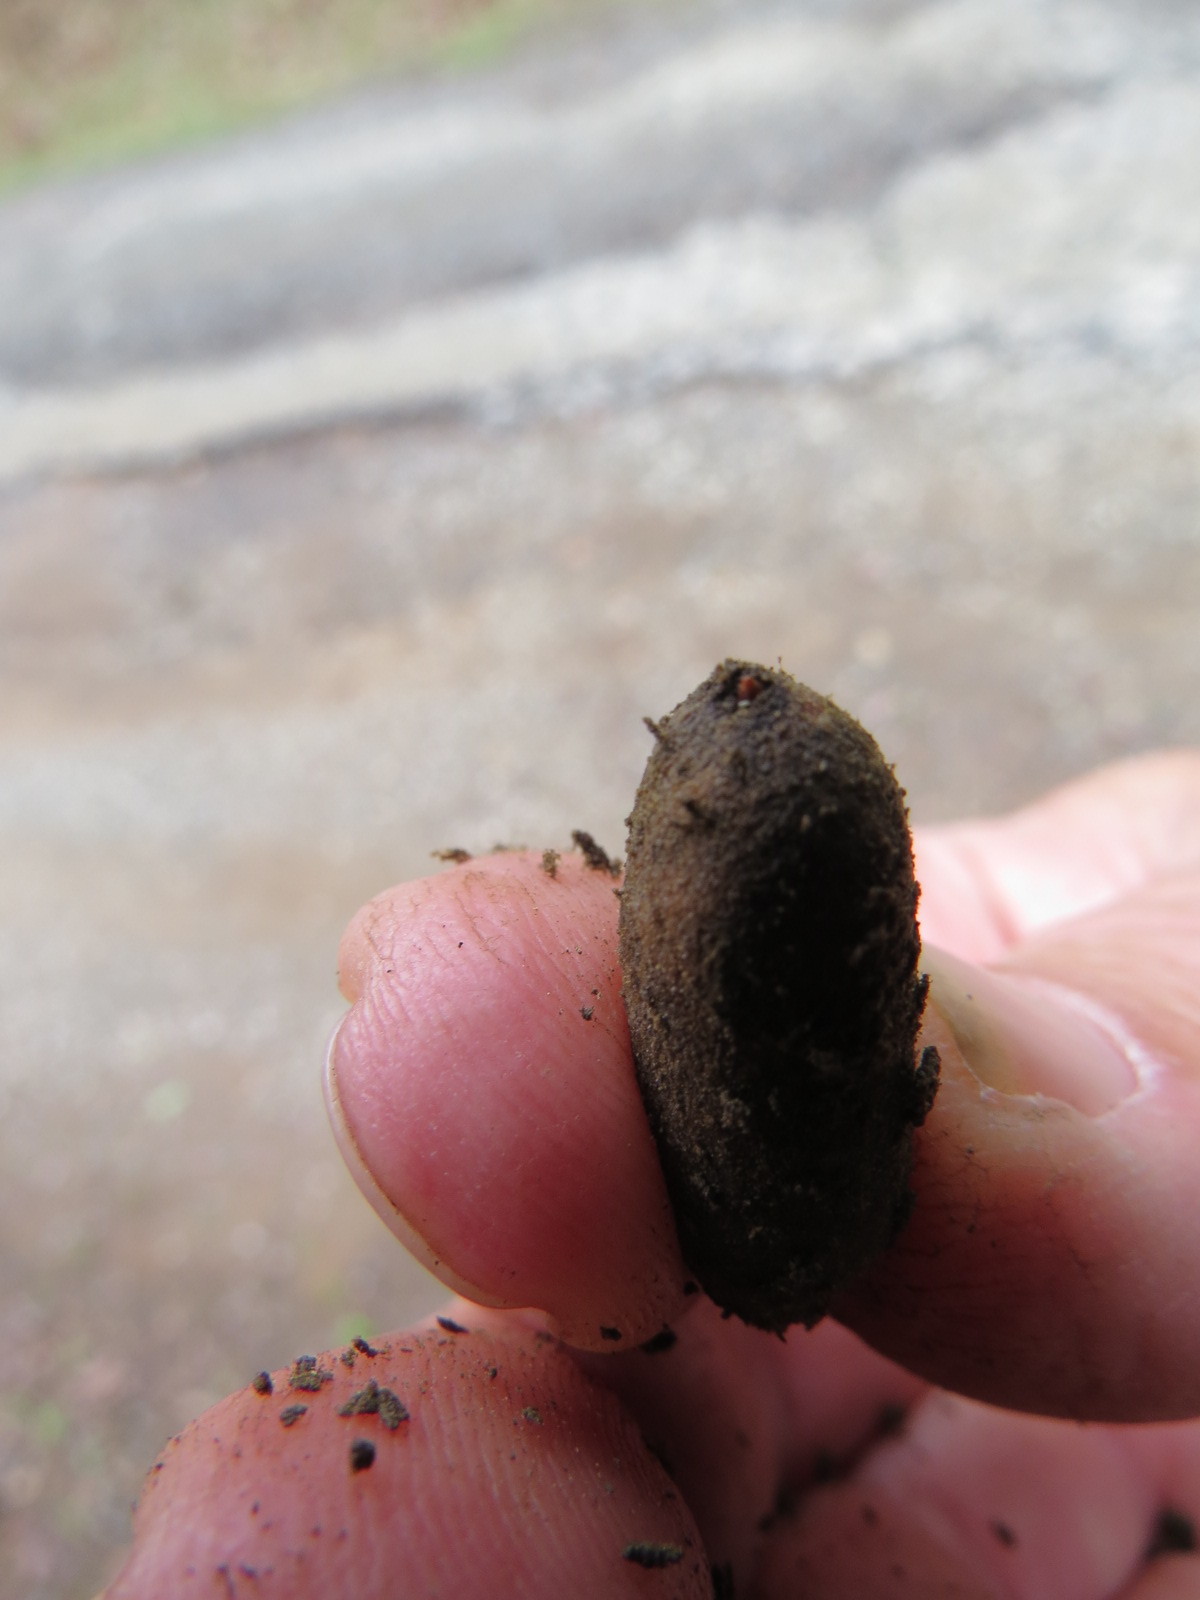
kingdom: Animalia
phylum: Arthropoda
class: Insecta
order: Hymenoptera
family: Cynipidae
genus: Heteroecus
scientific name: Heteroecus
